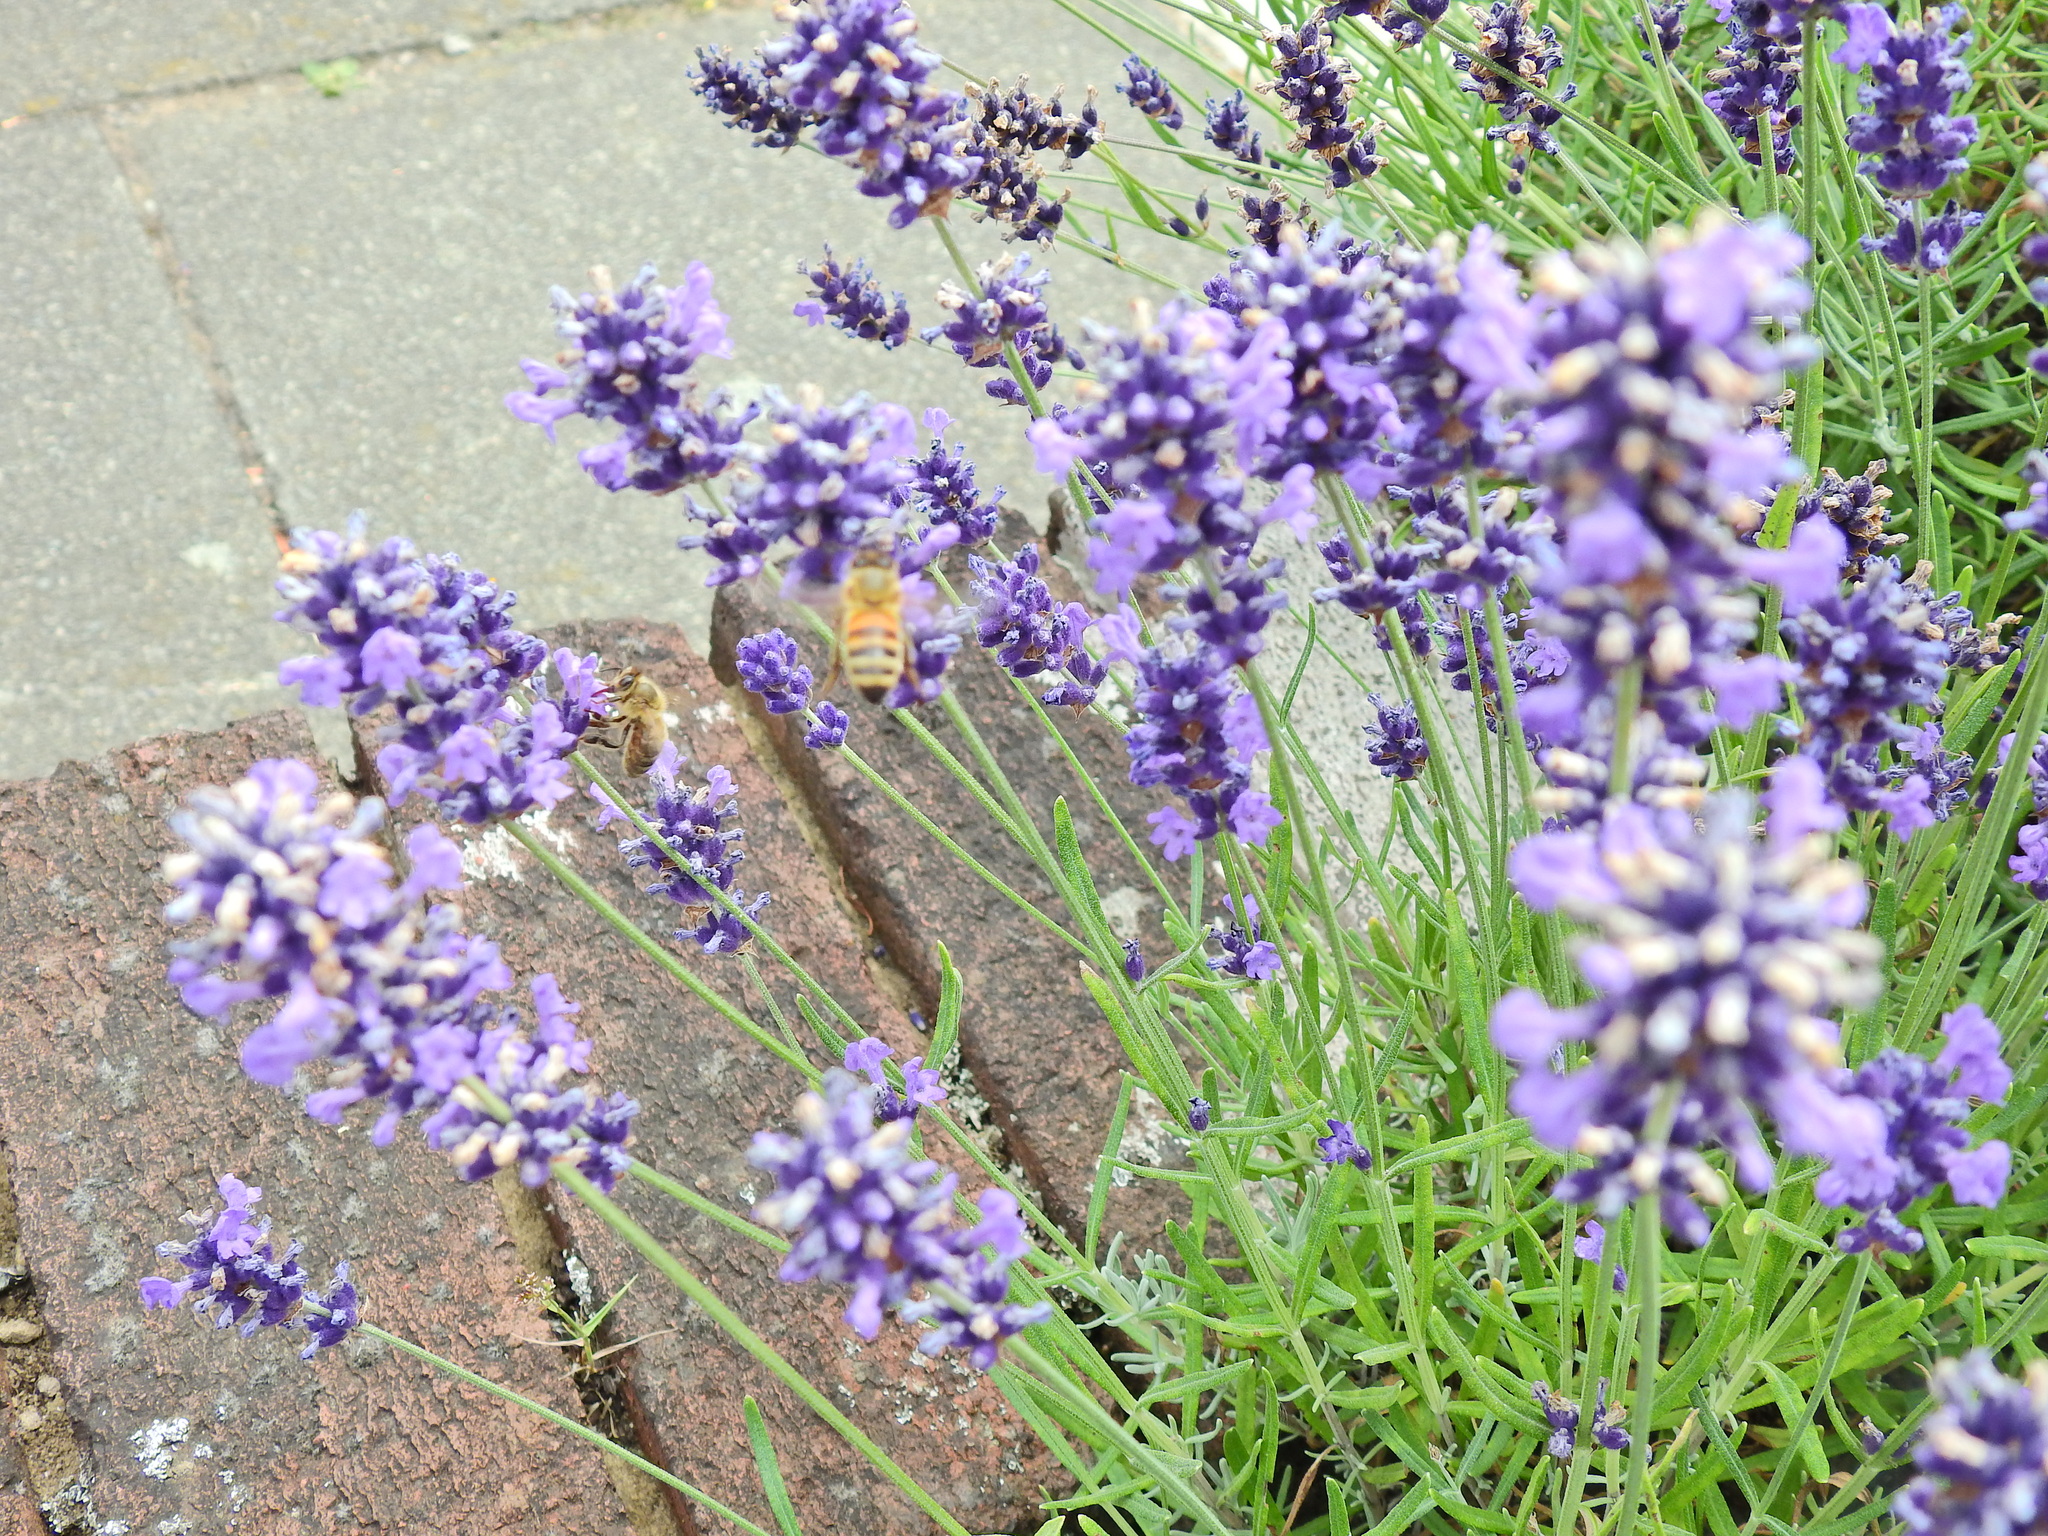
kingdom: Animalia
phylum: Arthropoda
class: Insecta
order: Hymenoptera
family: Apidae
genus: Apis
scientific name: Apis mellifera
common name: Honey bee
